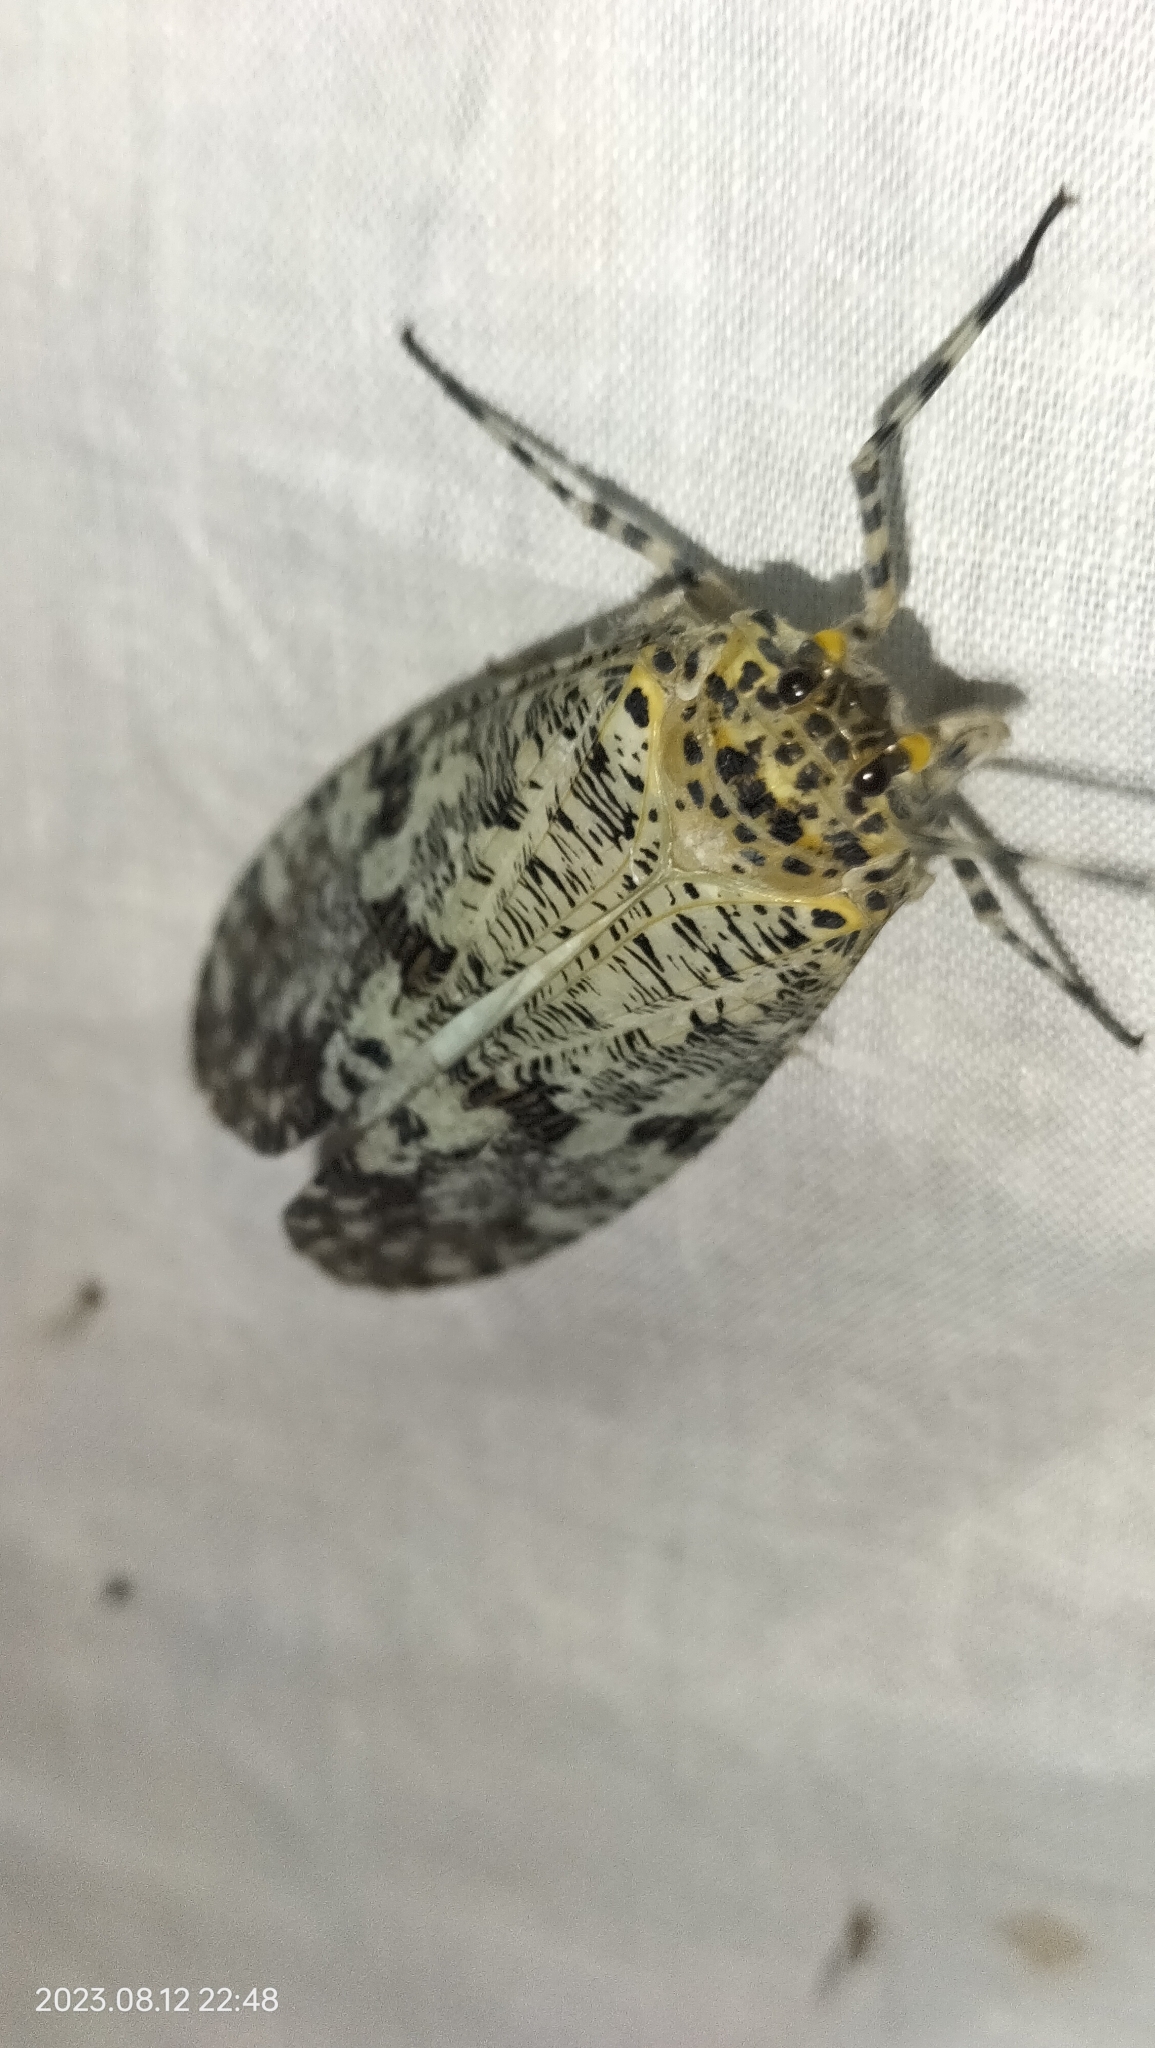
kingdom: Animalia
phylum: Arthropoda
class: Insecta
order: Hemiptera
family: Fulgoridae
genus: Phenax
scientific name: Phenax variegata
